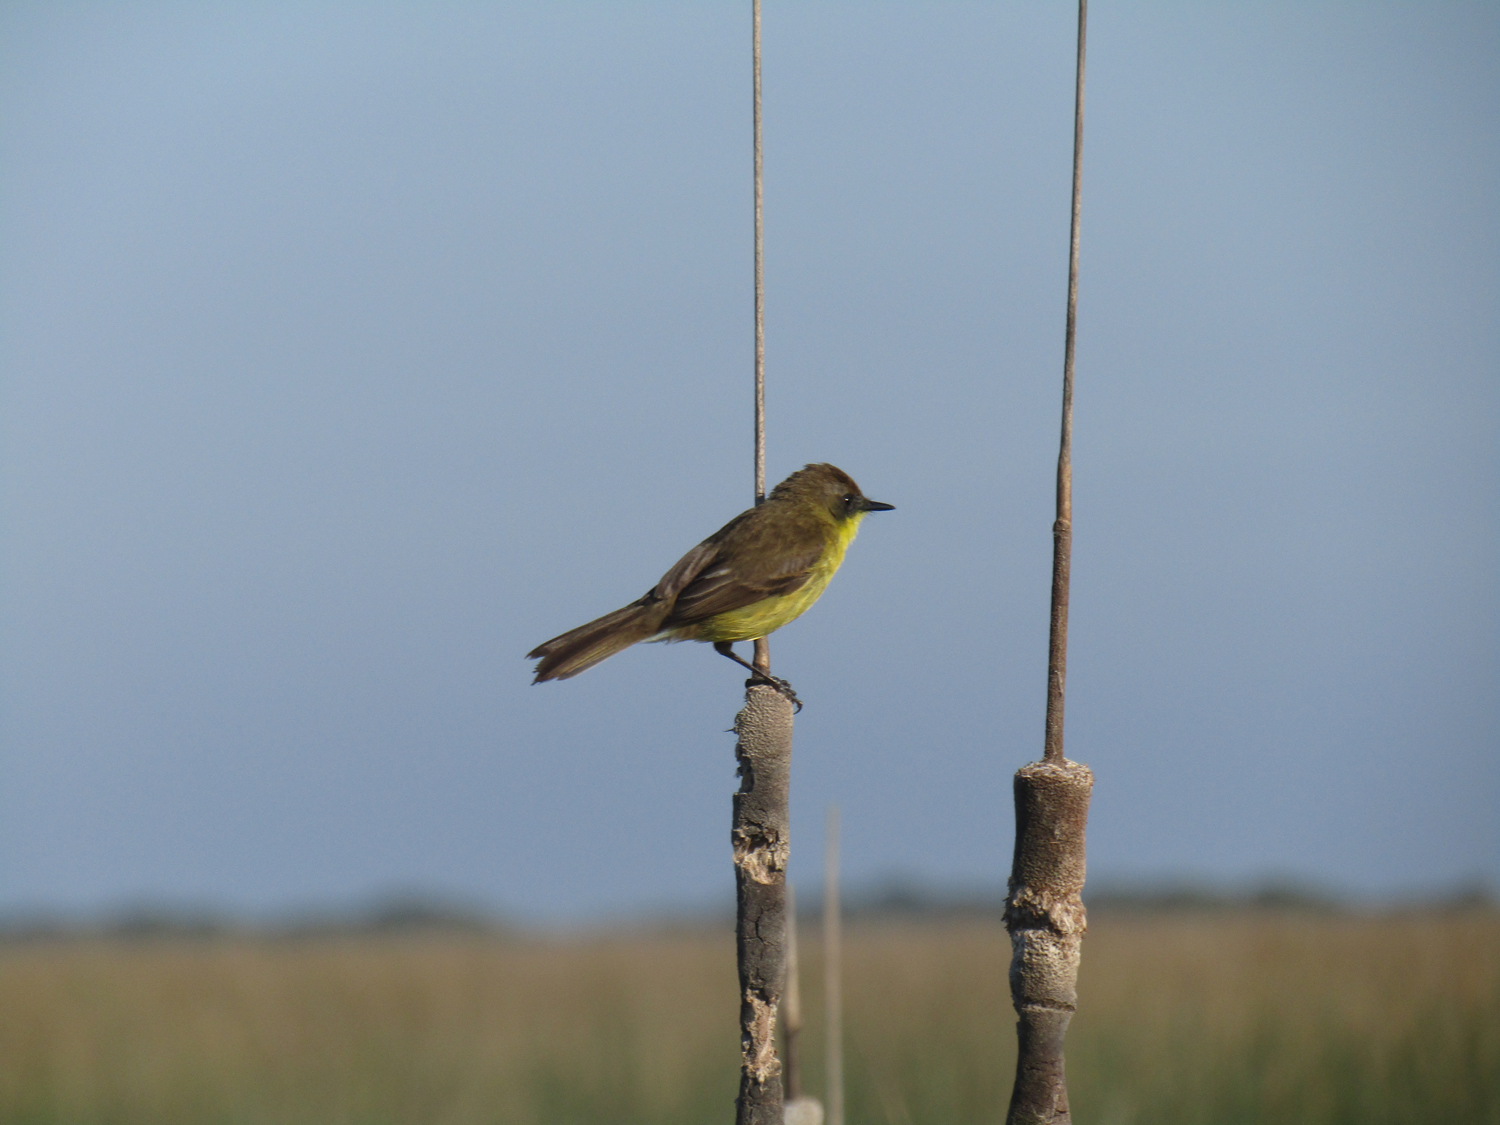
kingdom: Animalia
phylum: Chordata
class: Aves
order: Passeriformes
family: Tyrannidae
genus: Pseudocolopteryx
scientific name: Pseudocolopteryx flaviventris
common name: Warbling doradito
